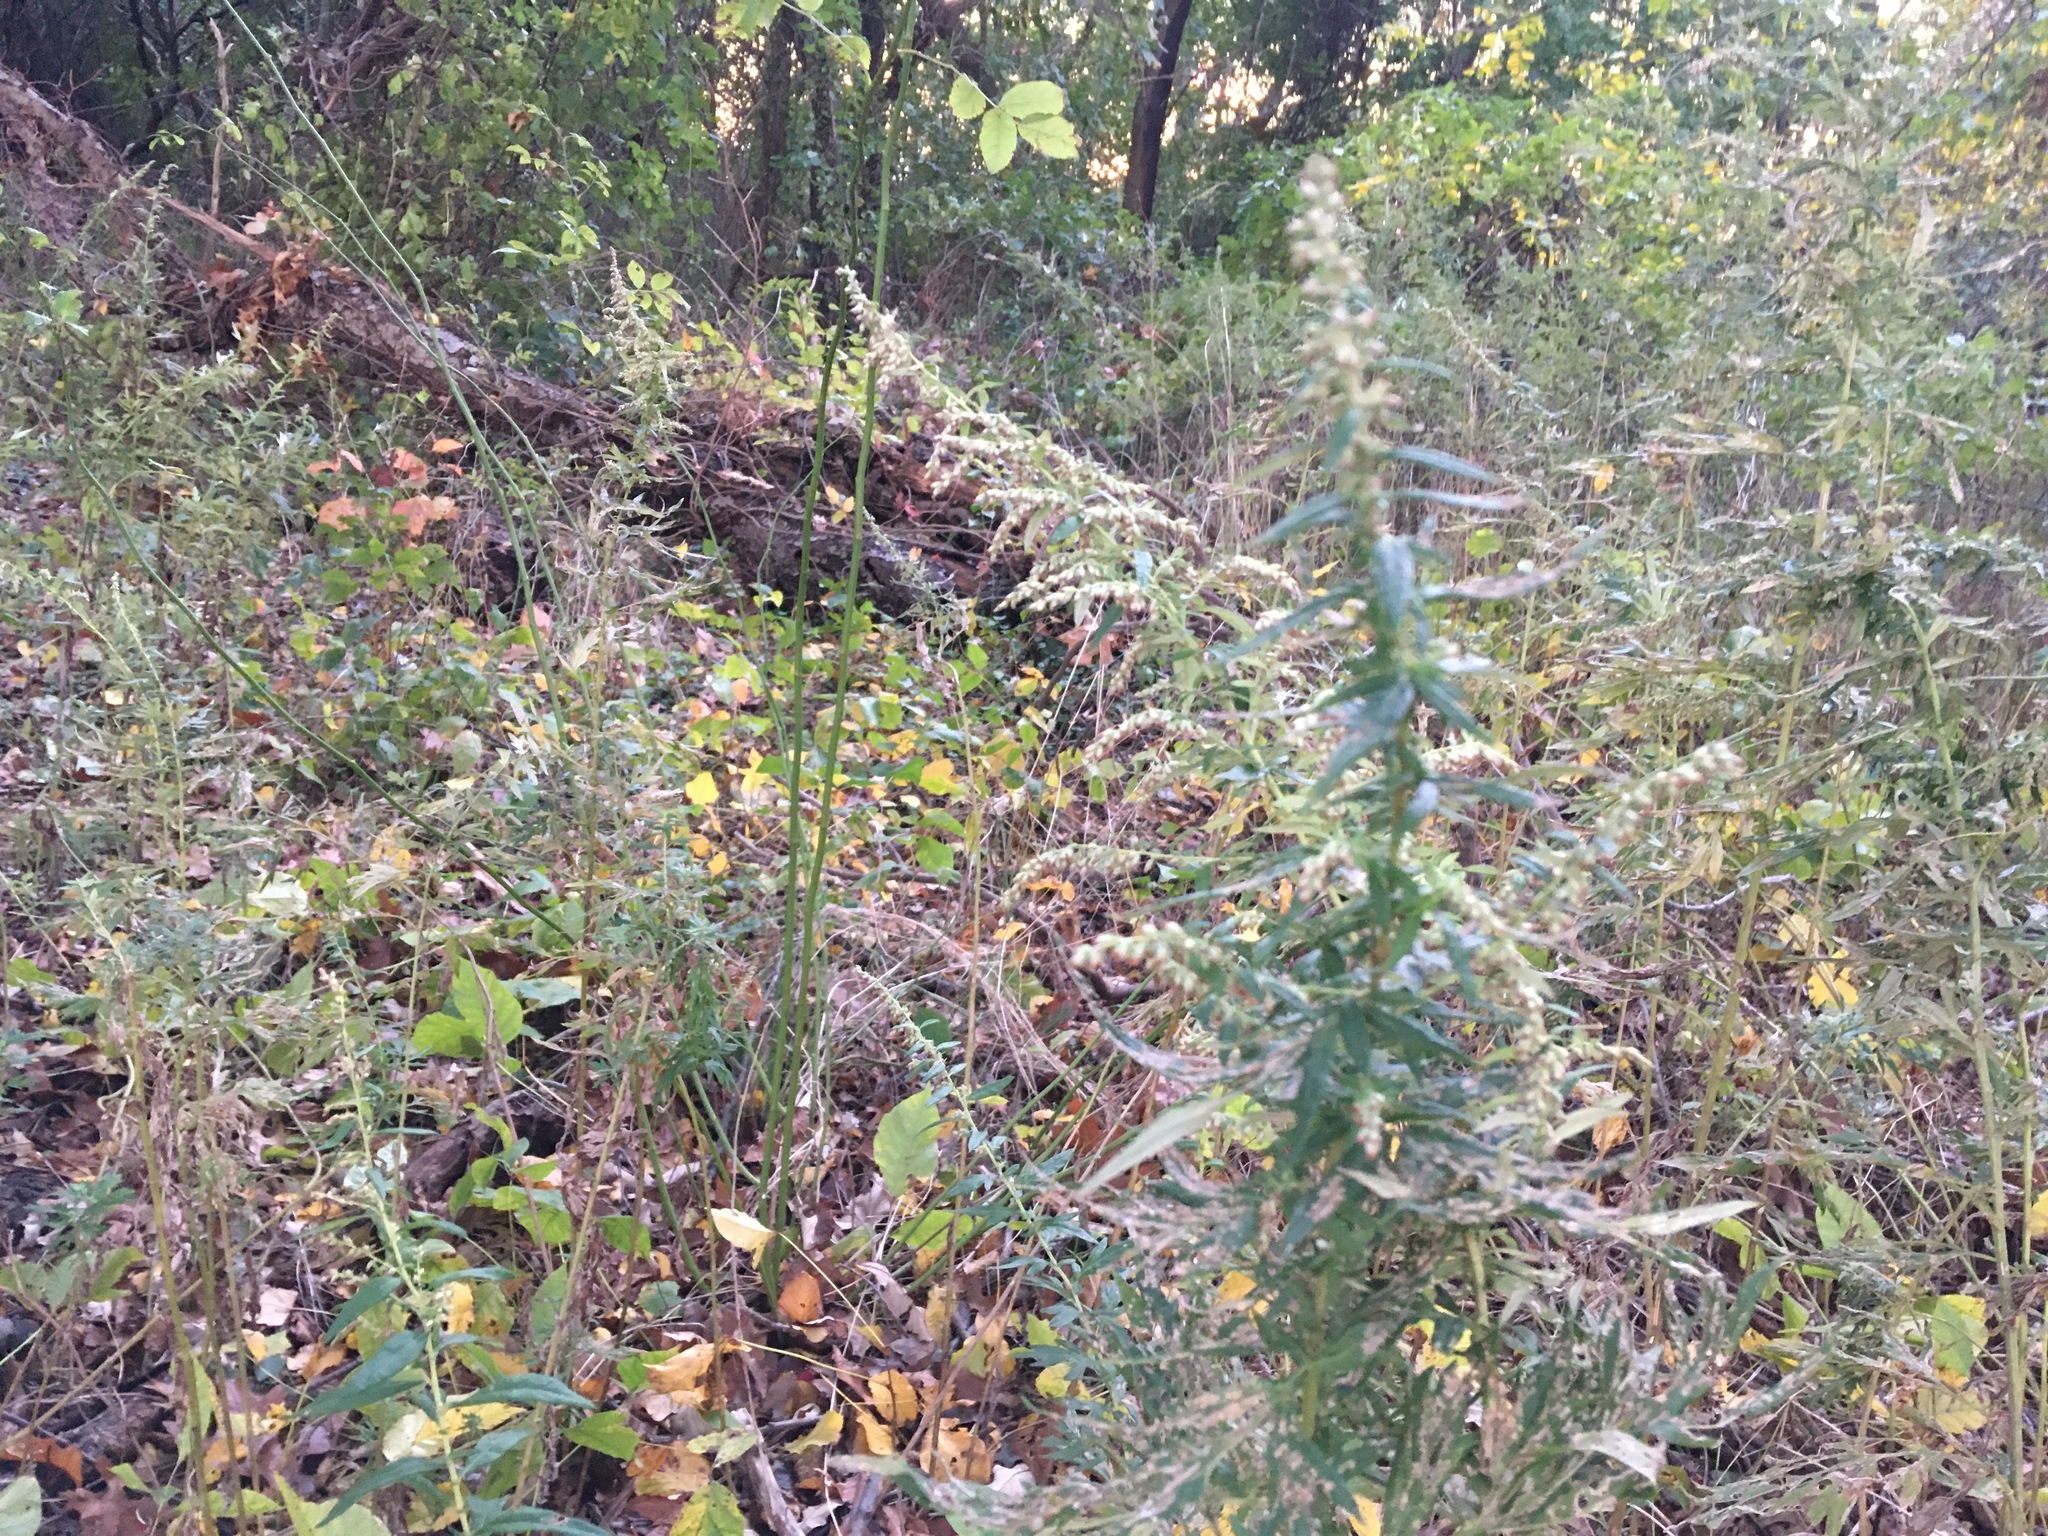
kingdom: Plantae
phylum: Tracheophyta
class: Magnoliopsida
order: Asterales
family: Asteraceae
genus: Artemisia
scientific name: Artemisia vulgaris
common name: Mugwort
